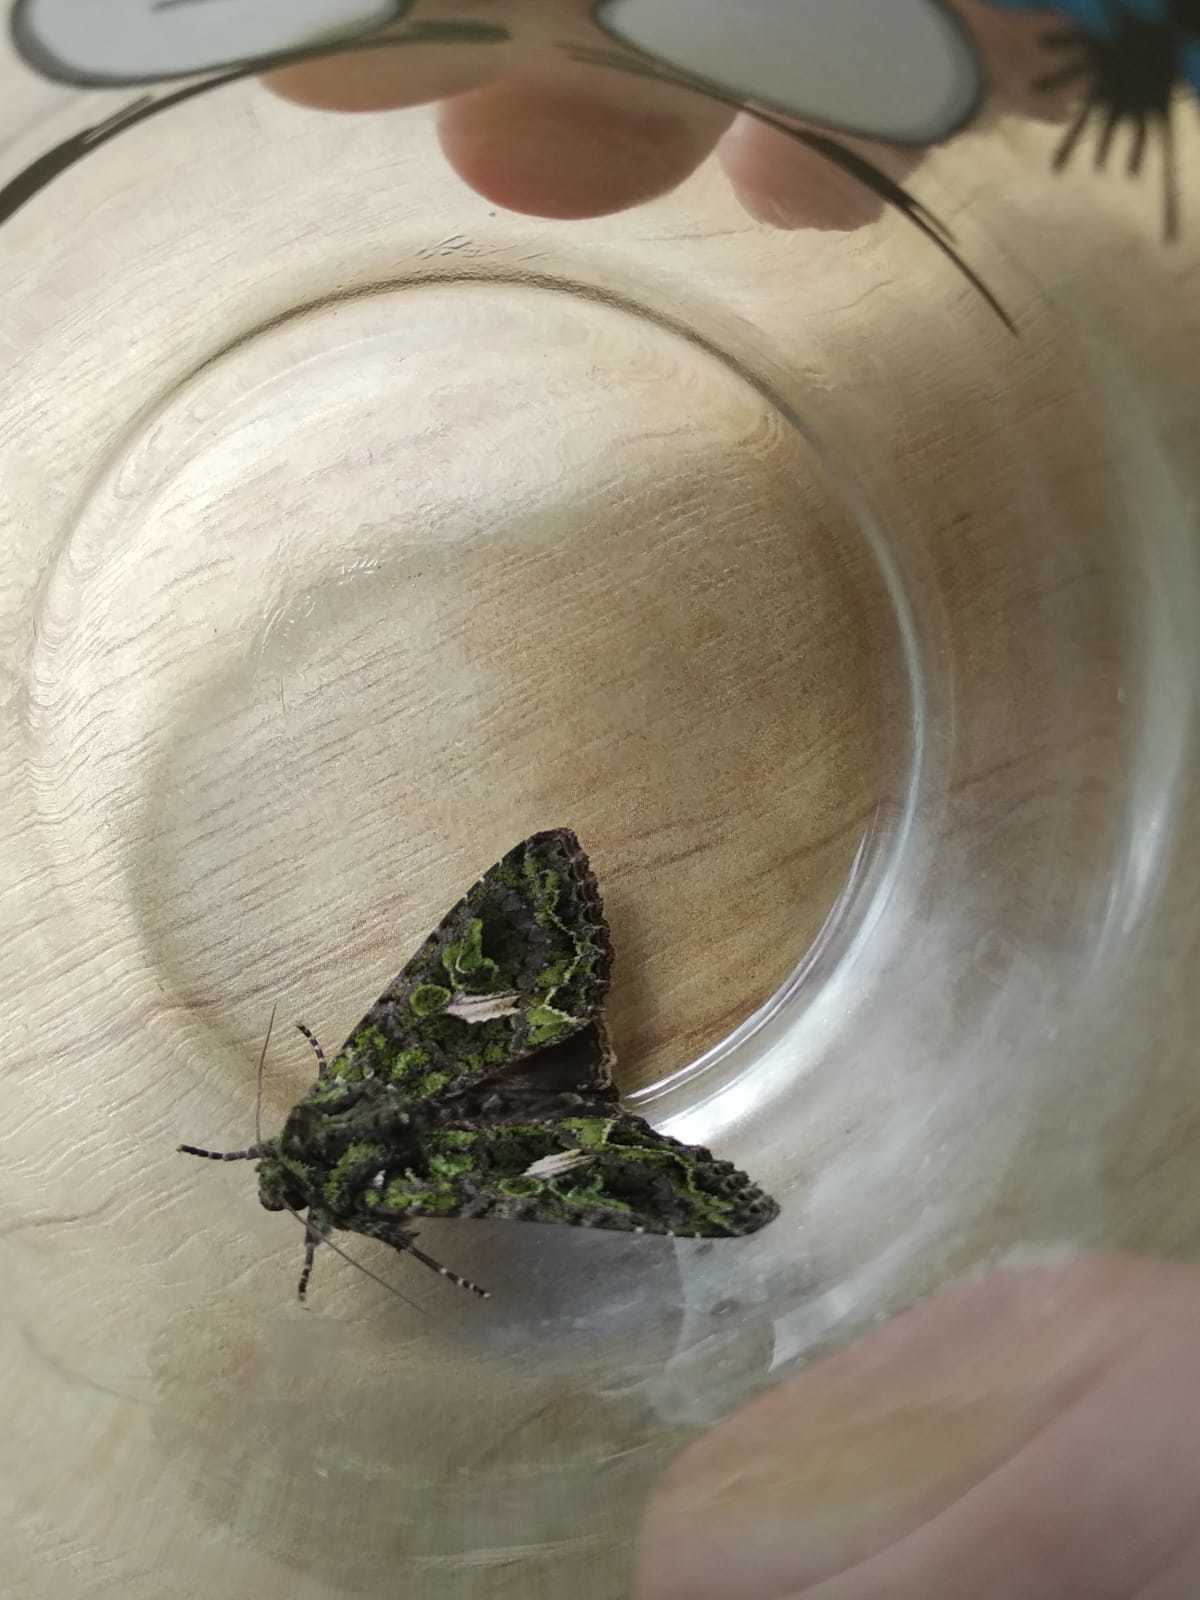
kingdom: Animalia
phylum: Arthropoda
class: Insecta
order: Lepidoptera
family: Noctuidae
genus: Trachea
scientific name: Trachea atriplicis
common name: Orache moth
